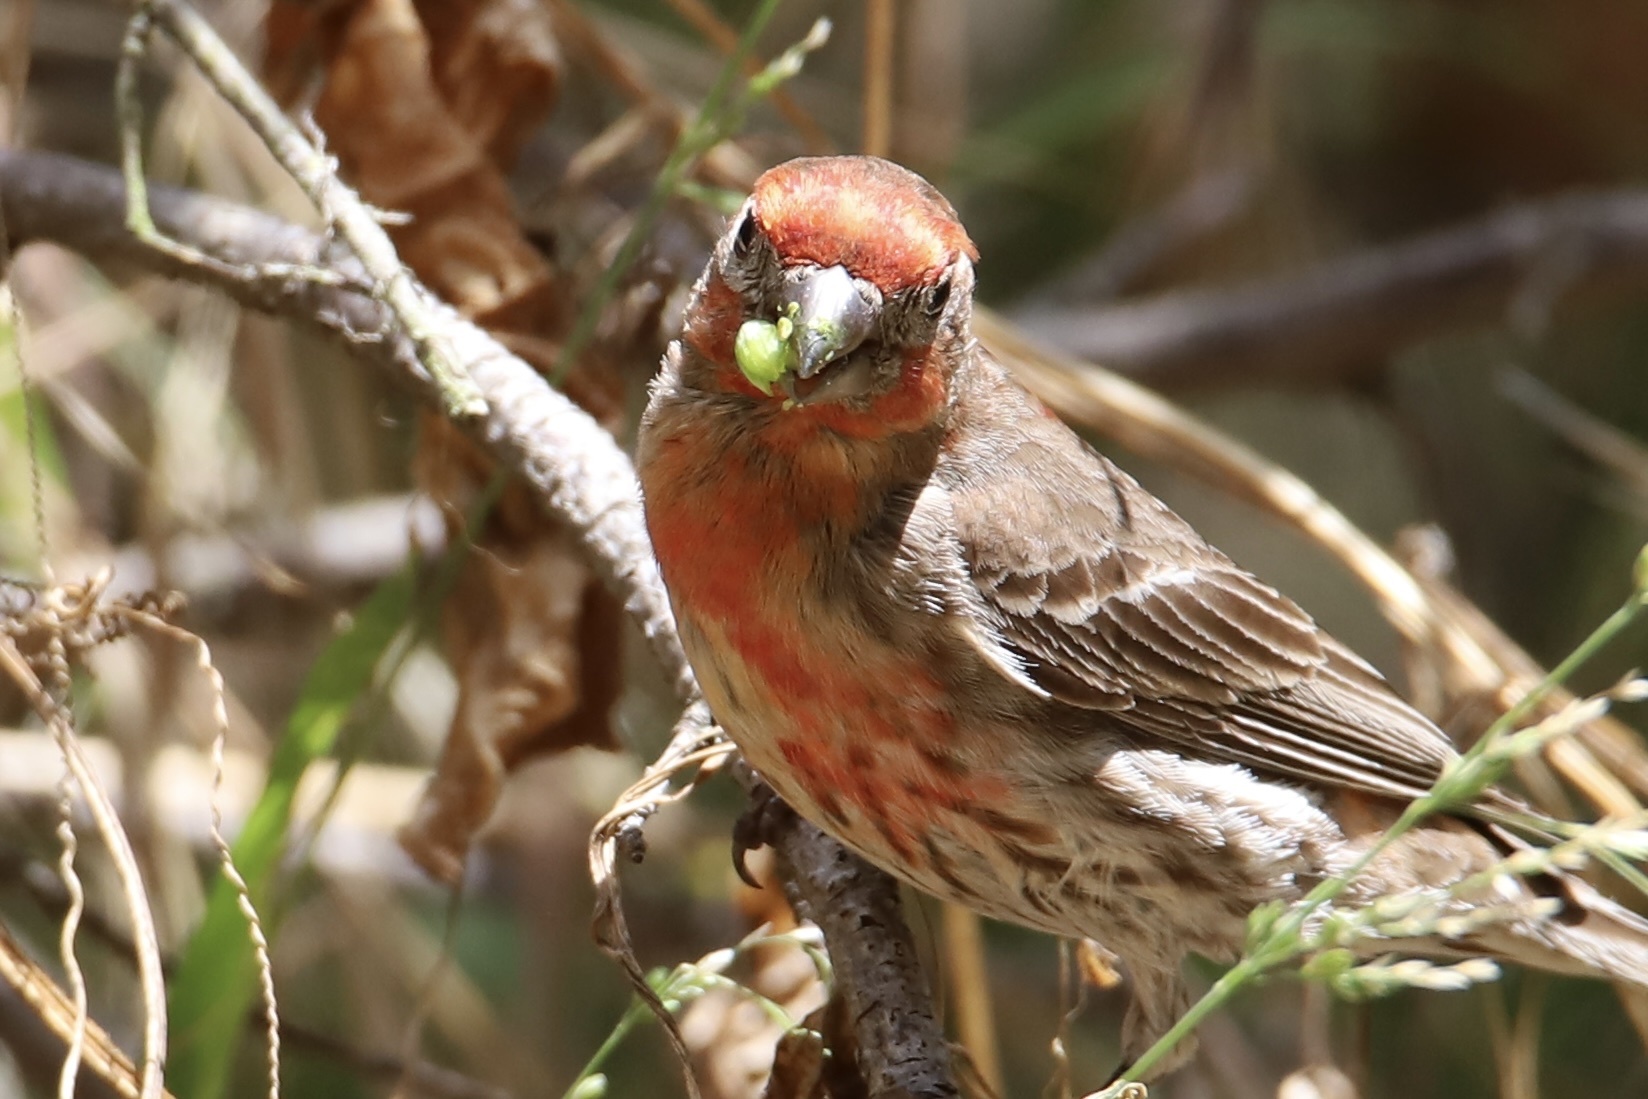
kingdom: Animalia
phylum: Chordata
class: Aves
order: Passeriformes
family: Fringillidae
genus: Haemorhous
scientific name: Haemorhous mexicanus
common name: House finch
